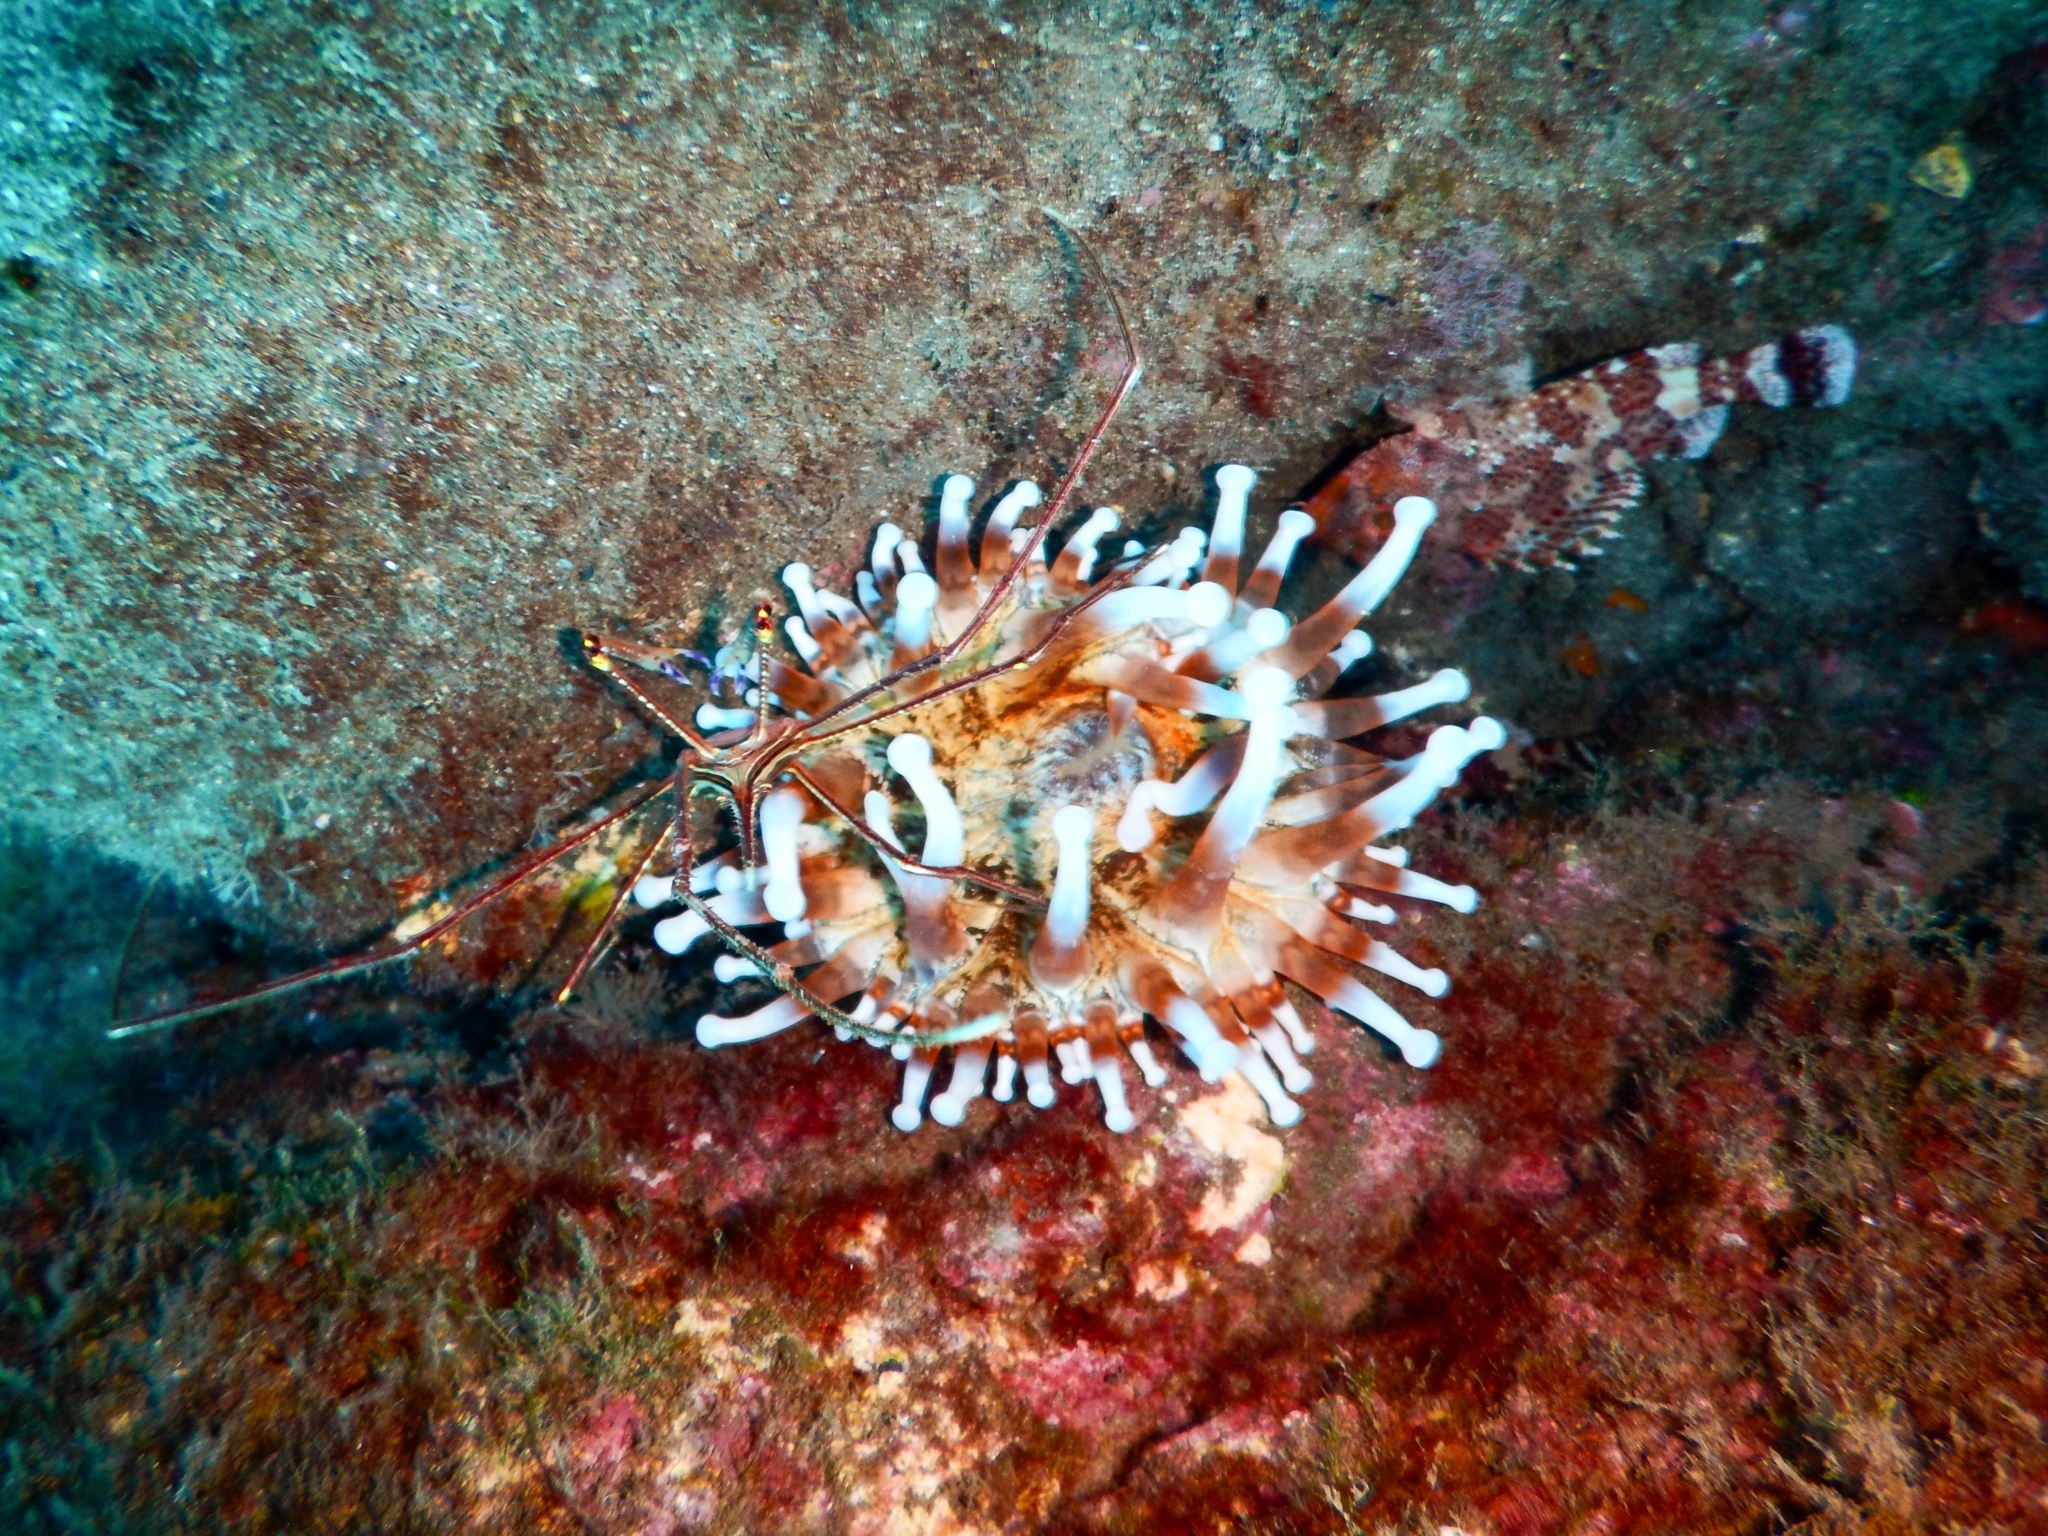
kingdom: Animalia
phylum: Chordata
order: Scorpaeniformes
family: Scorpaenidae
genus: Scorpaena
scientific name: Scorpaena maderensis
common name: Madeira rockfish
